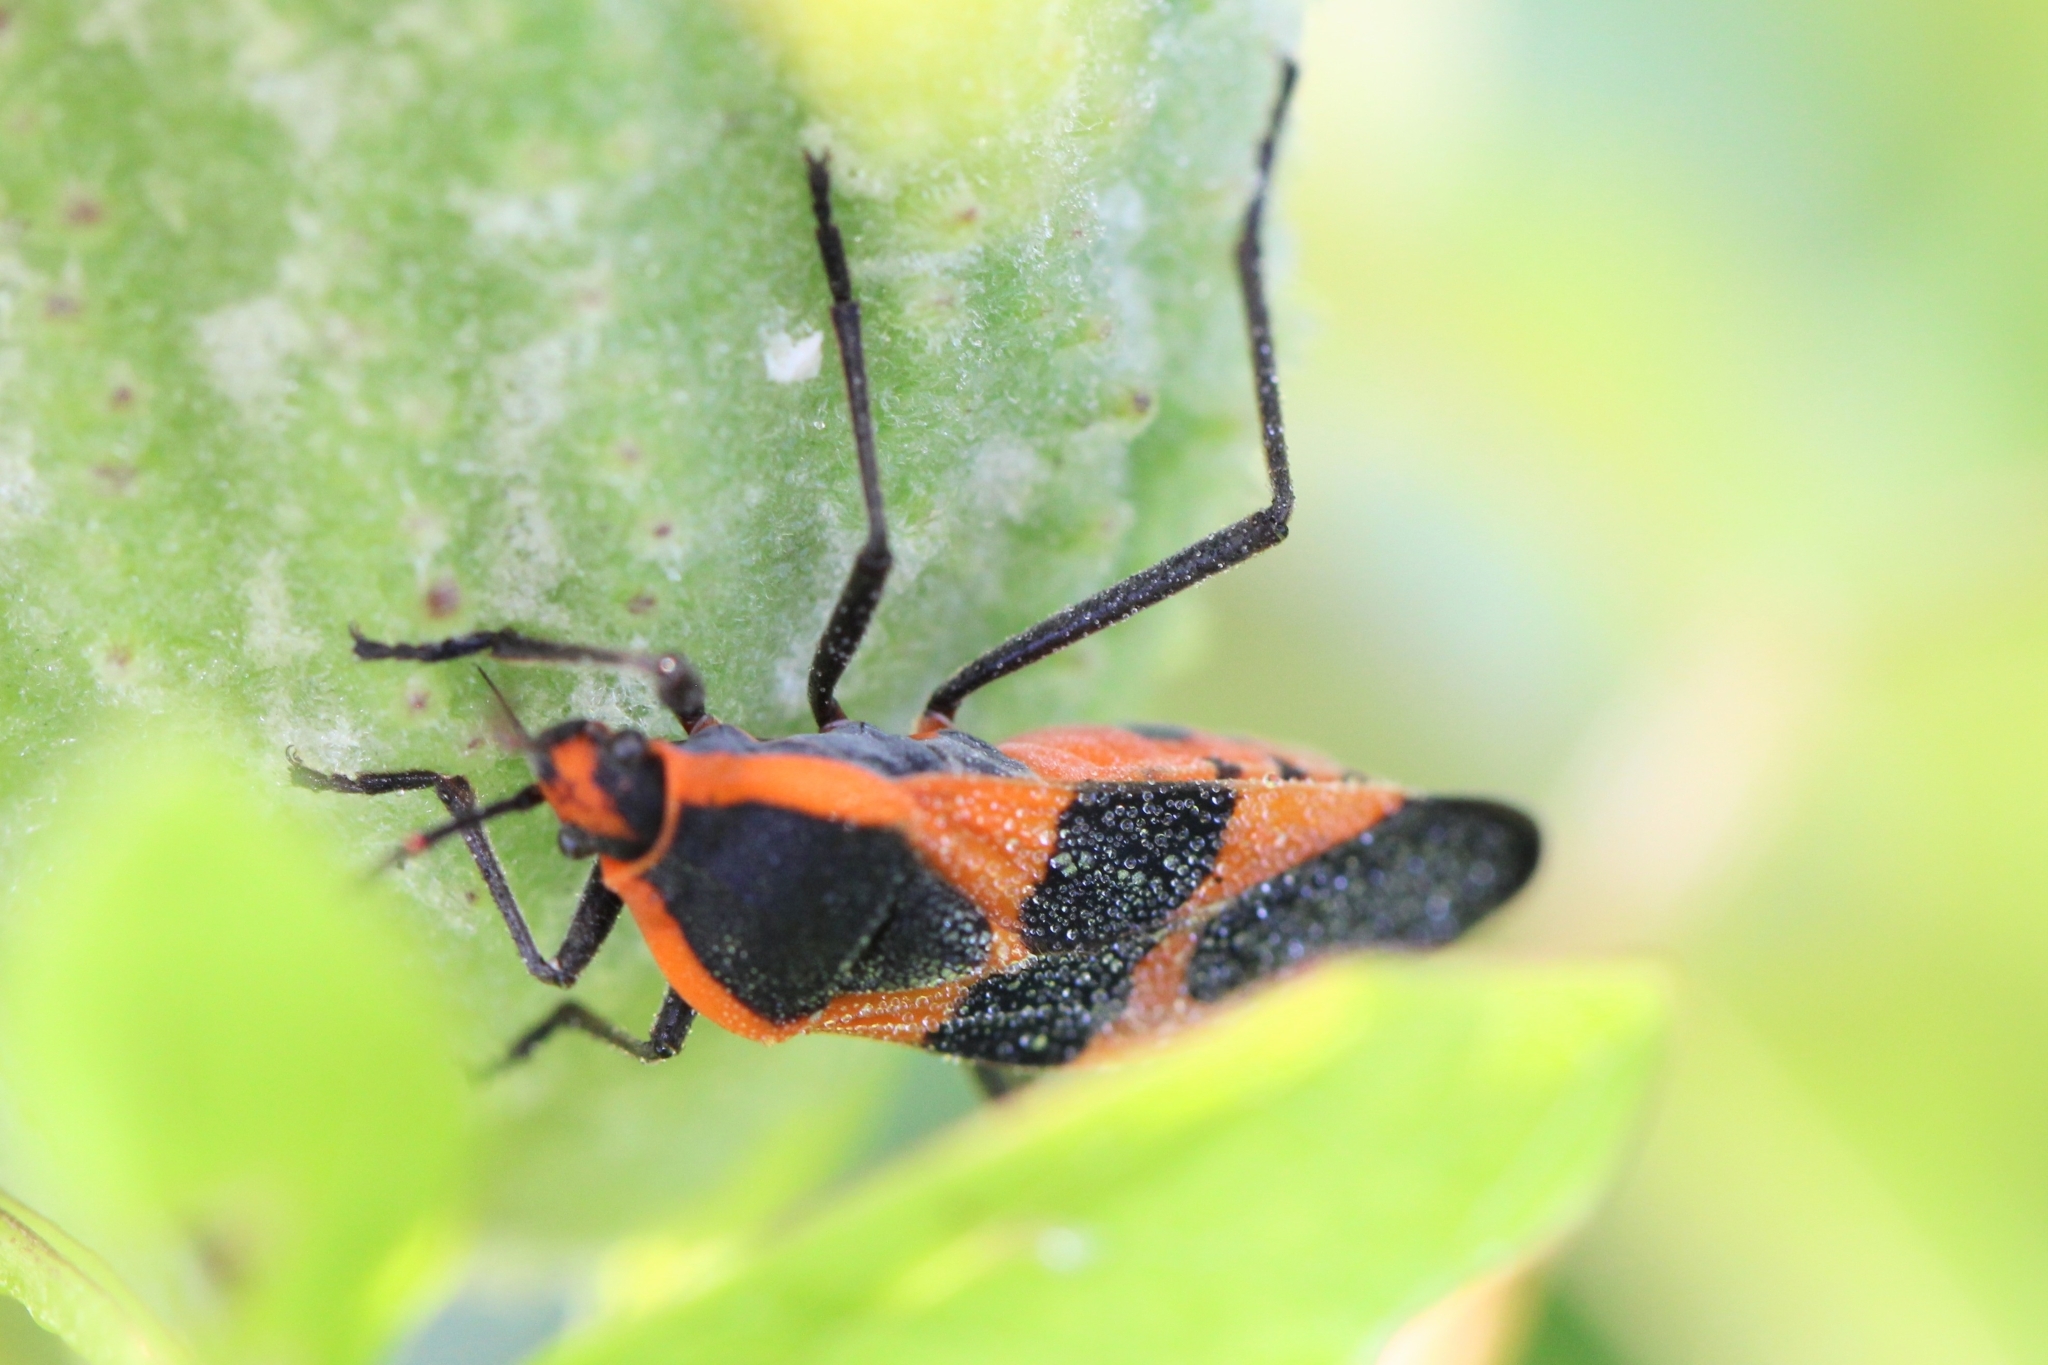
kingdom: Animalia
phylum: Arthropoda
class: Insecta
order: Hemiptera
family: Lygaeidae
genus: Oncopeltus
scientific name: Oncopeltus fasciatus
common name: Large milkweed bug
